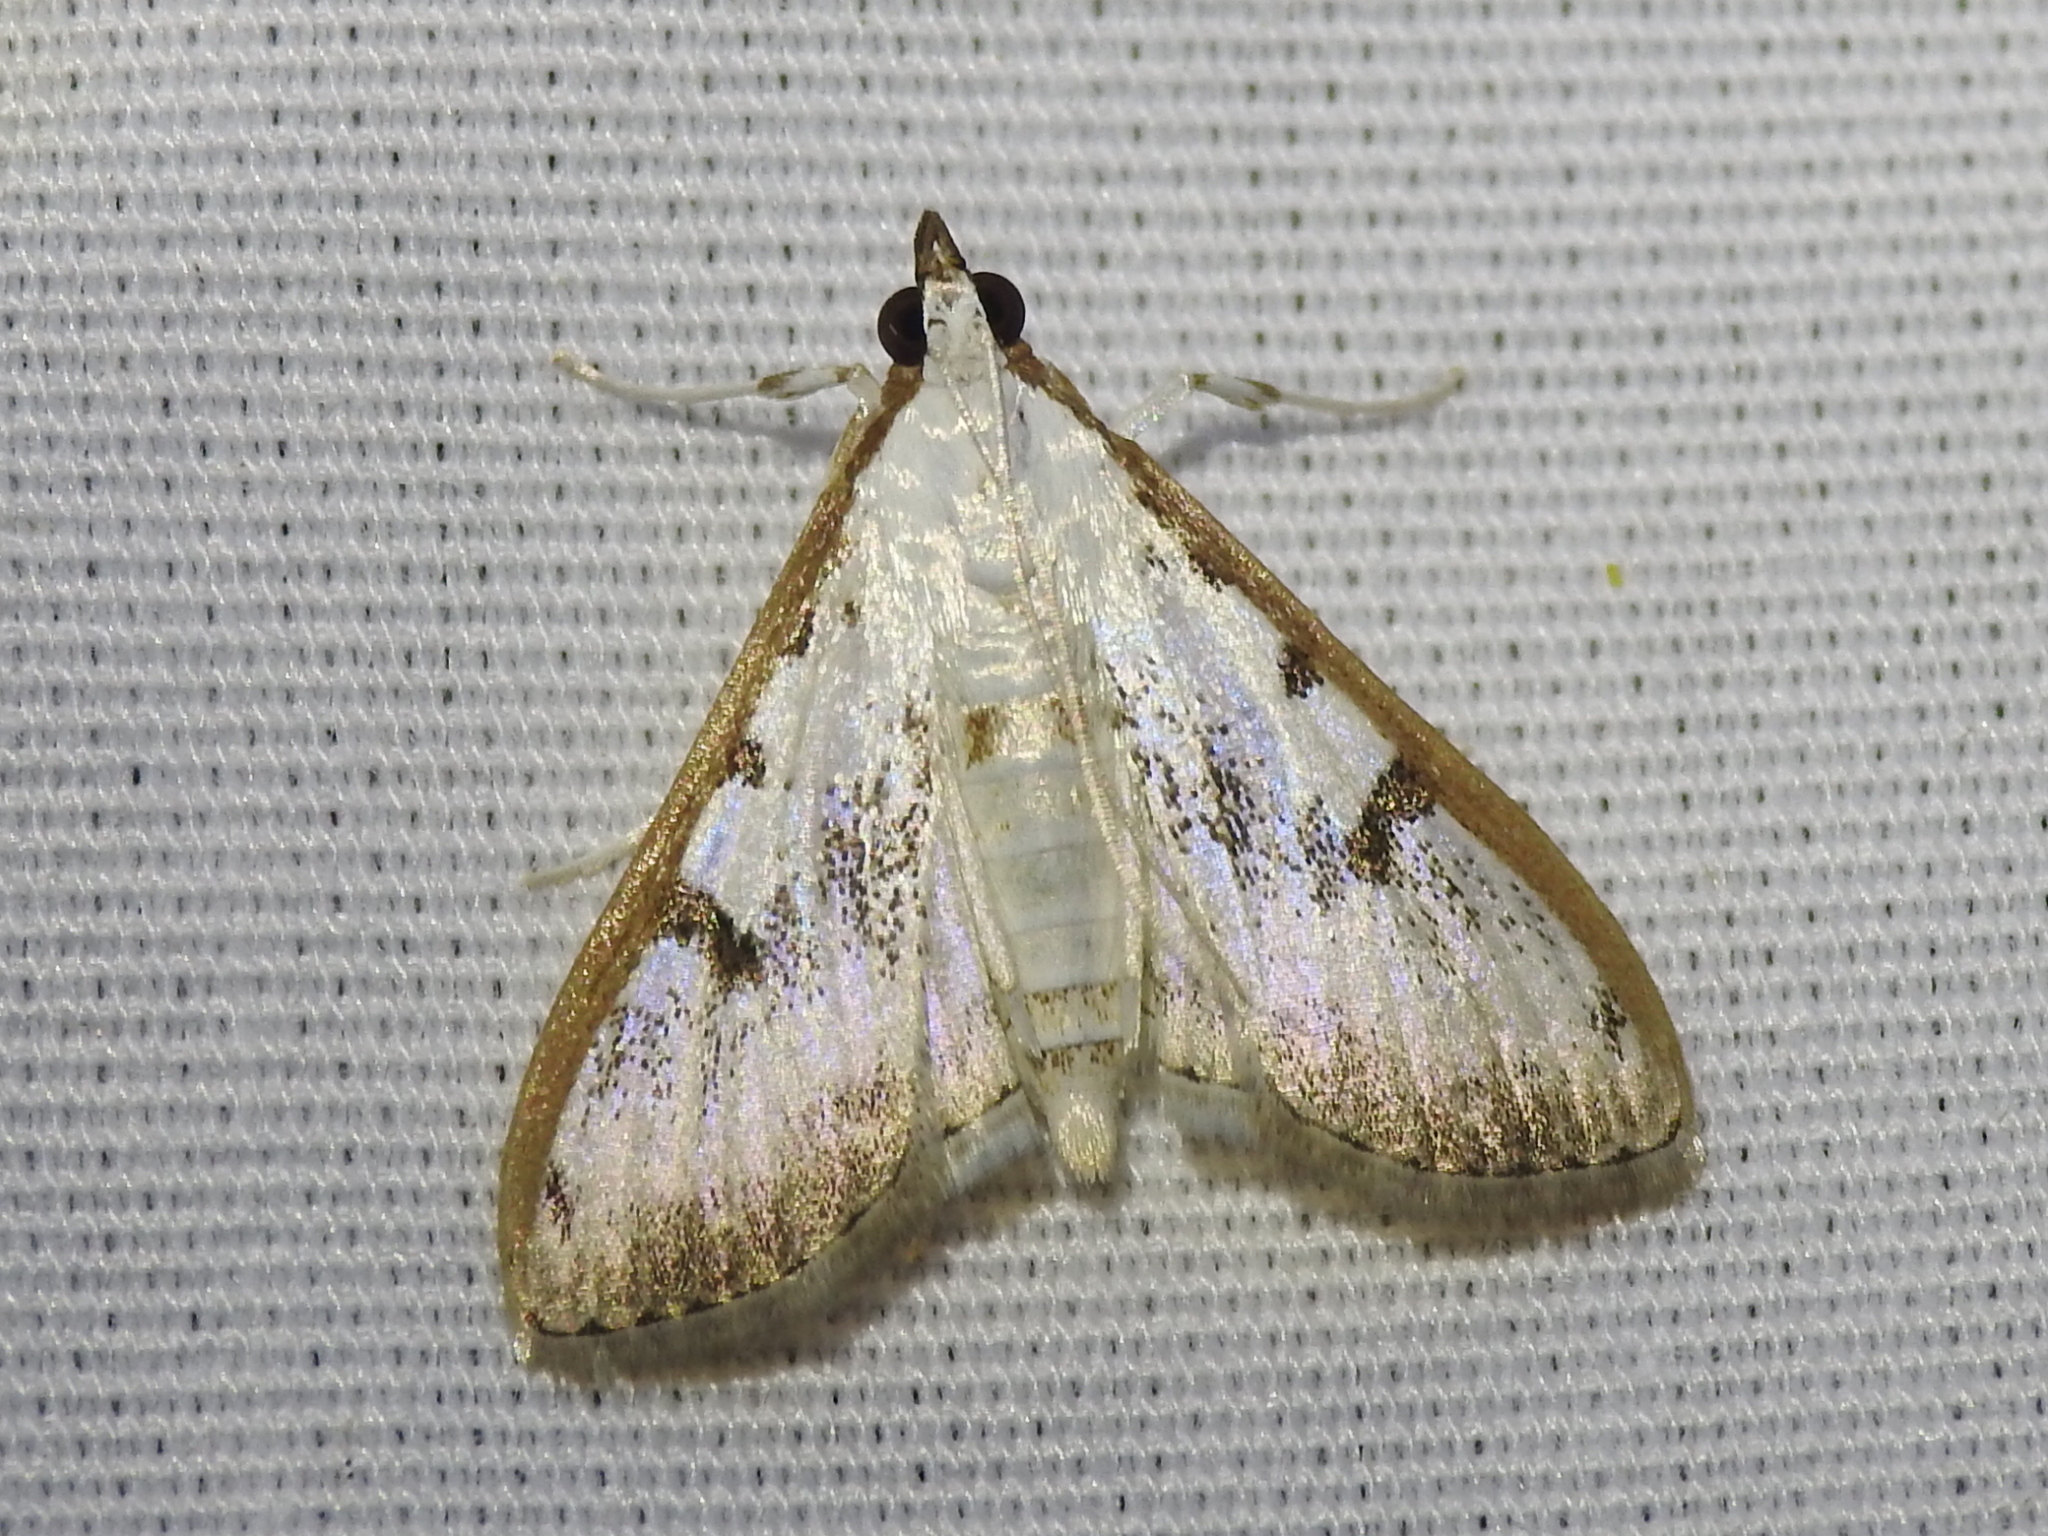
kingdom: Animalia
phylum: Arthropoda
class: Insecta
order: Lepidoptera
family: Crambidae
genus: Palpita
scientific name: Palpita gracilalis
